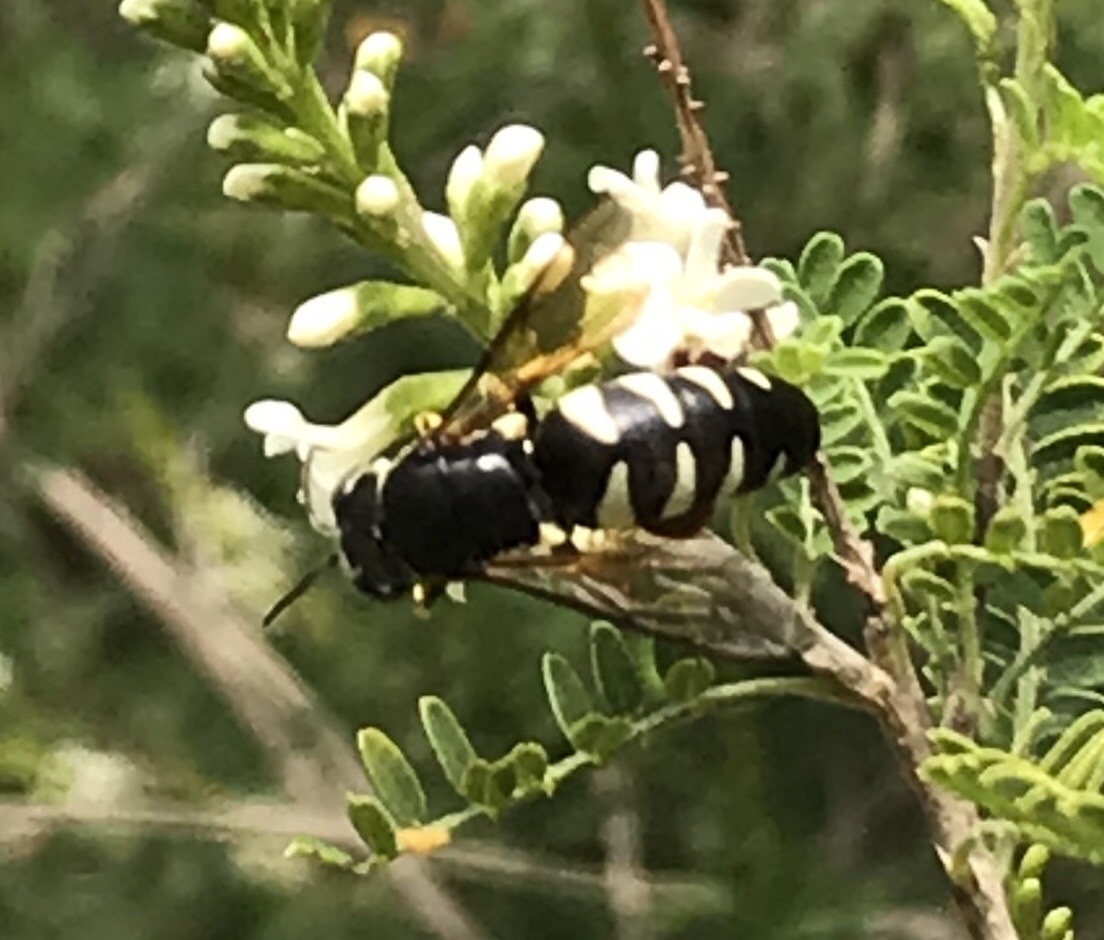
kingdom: Animalia
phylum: Arthropoda
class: Insecta
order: Hymenoptera
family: Crabronidae
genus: Bicyrtes
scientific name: Bicyrtes quadrifasciatus
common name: Four-banded stink bug hunter wasp
